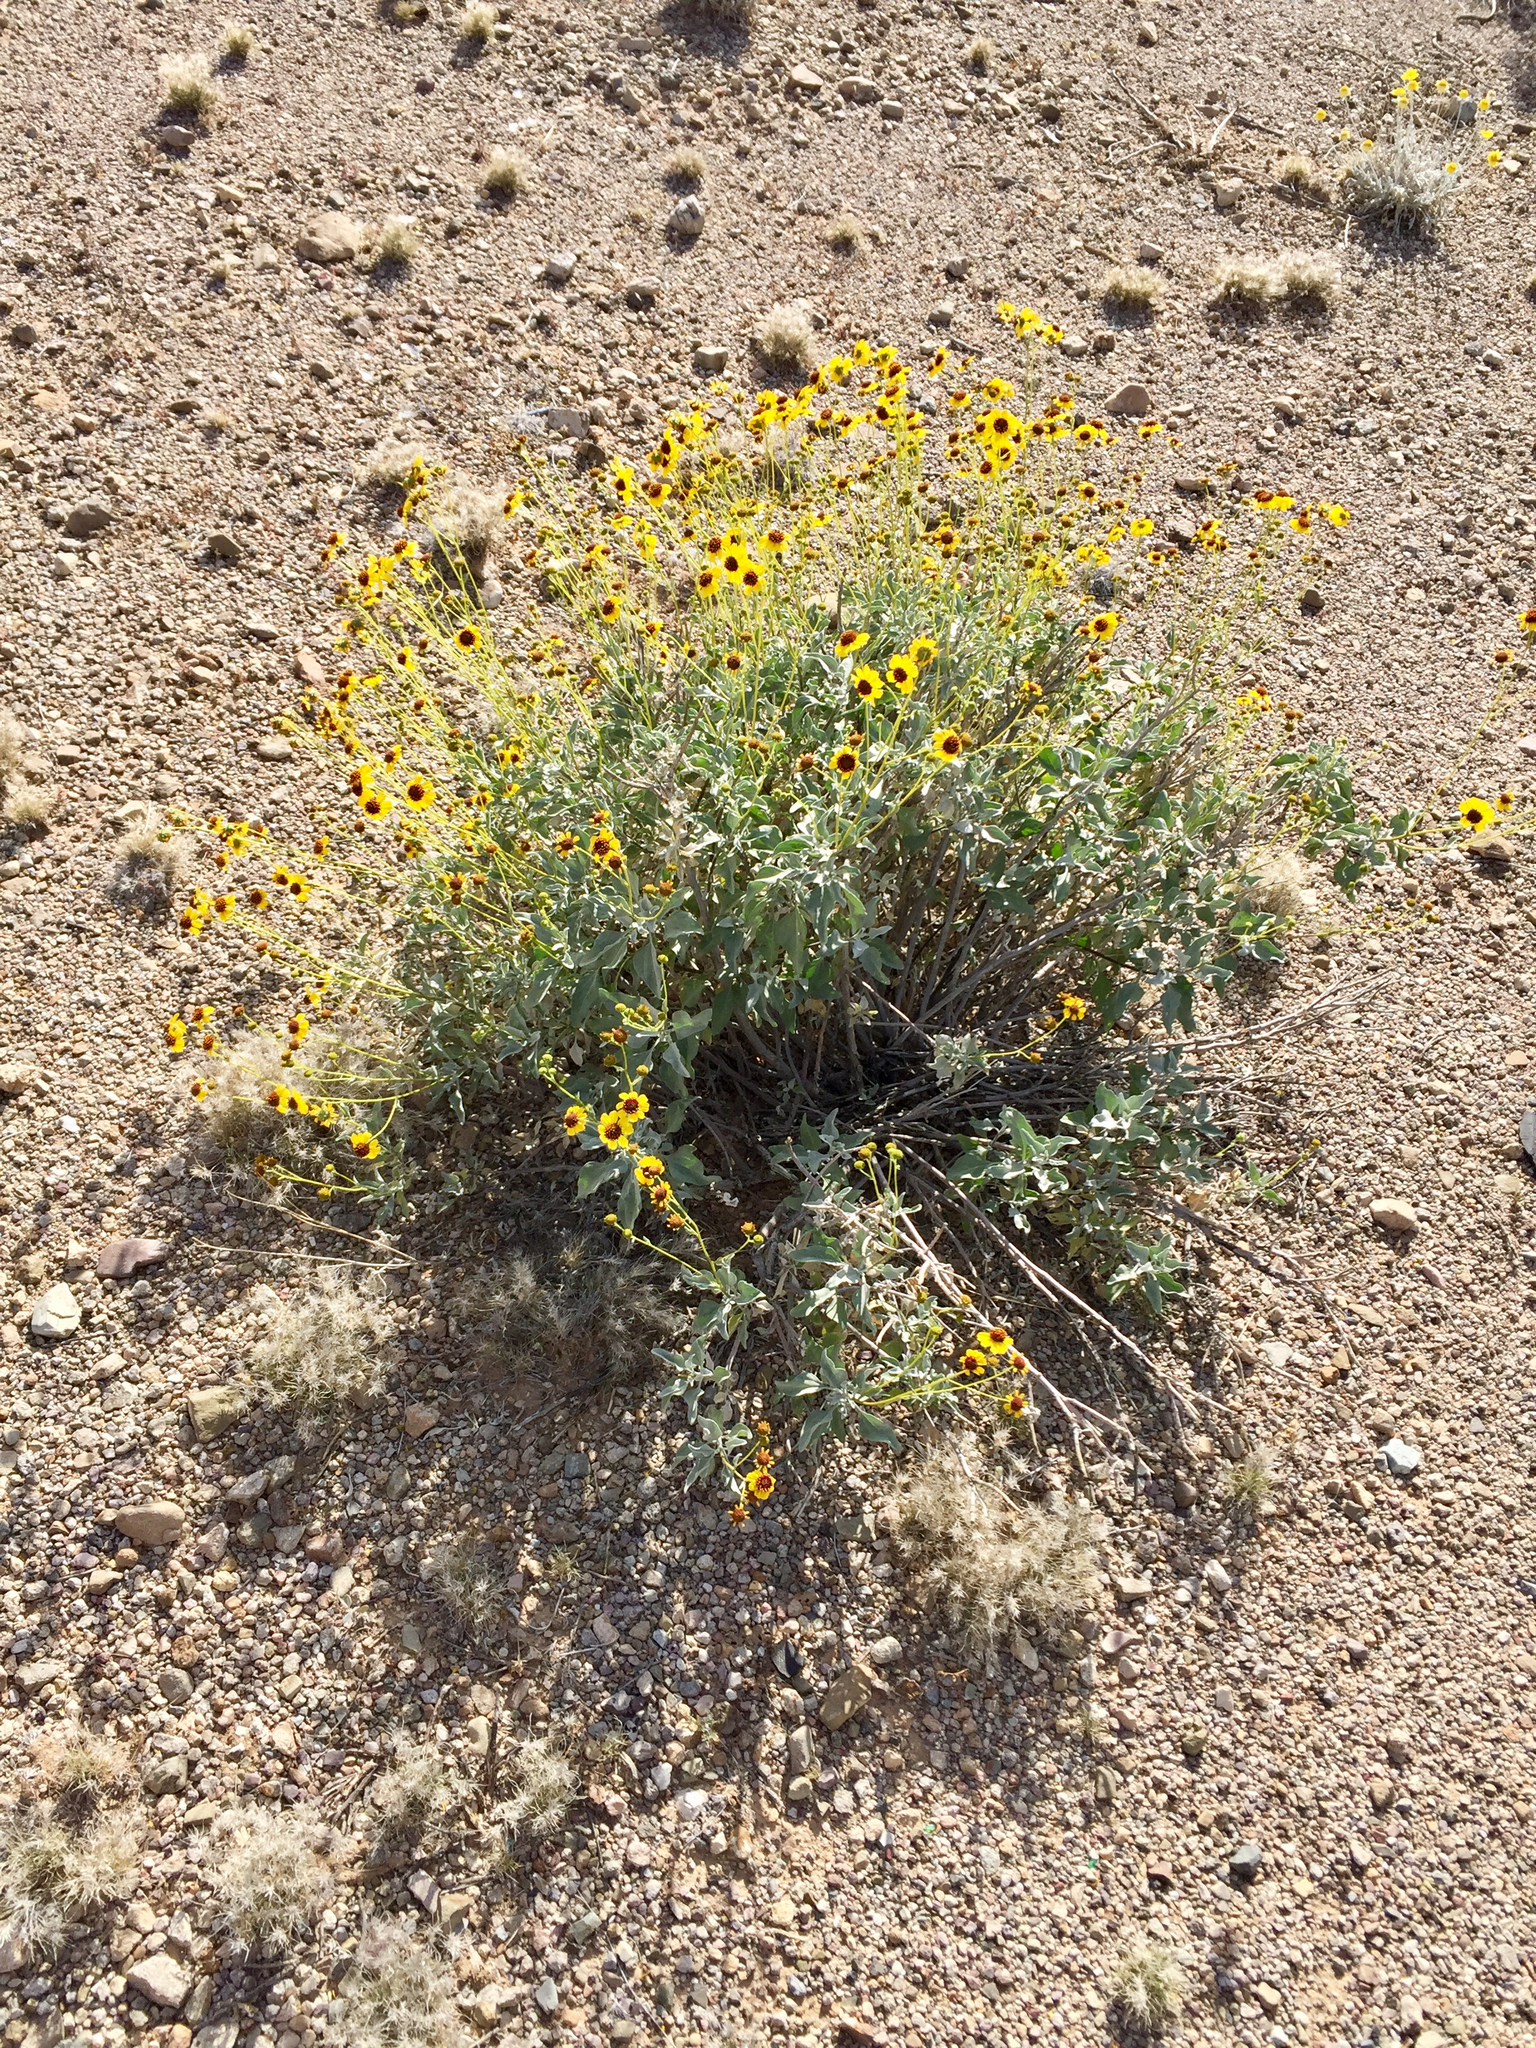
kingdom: Plantae
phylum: Tracheophyta
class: Magnoliopsida
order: Asterales
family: Asteraceae
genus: Encelia
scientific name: Encelia farinosa
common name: Brittlebush
